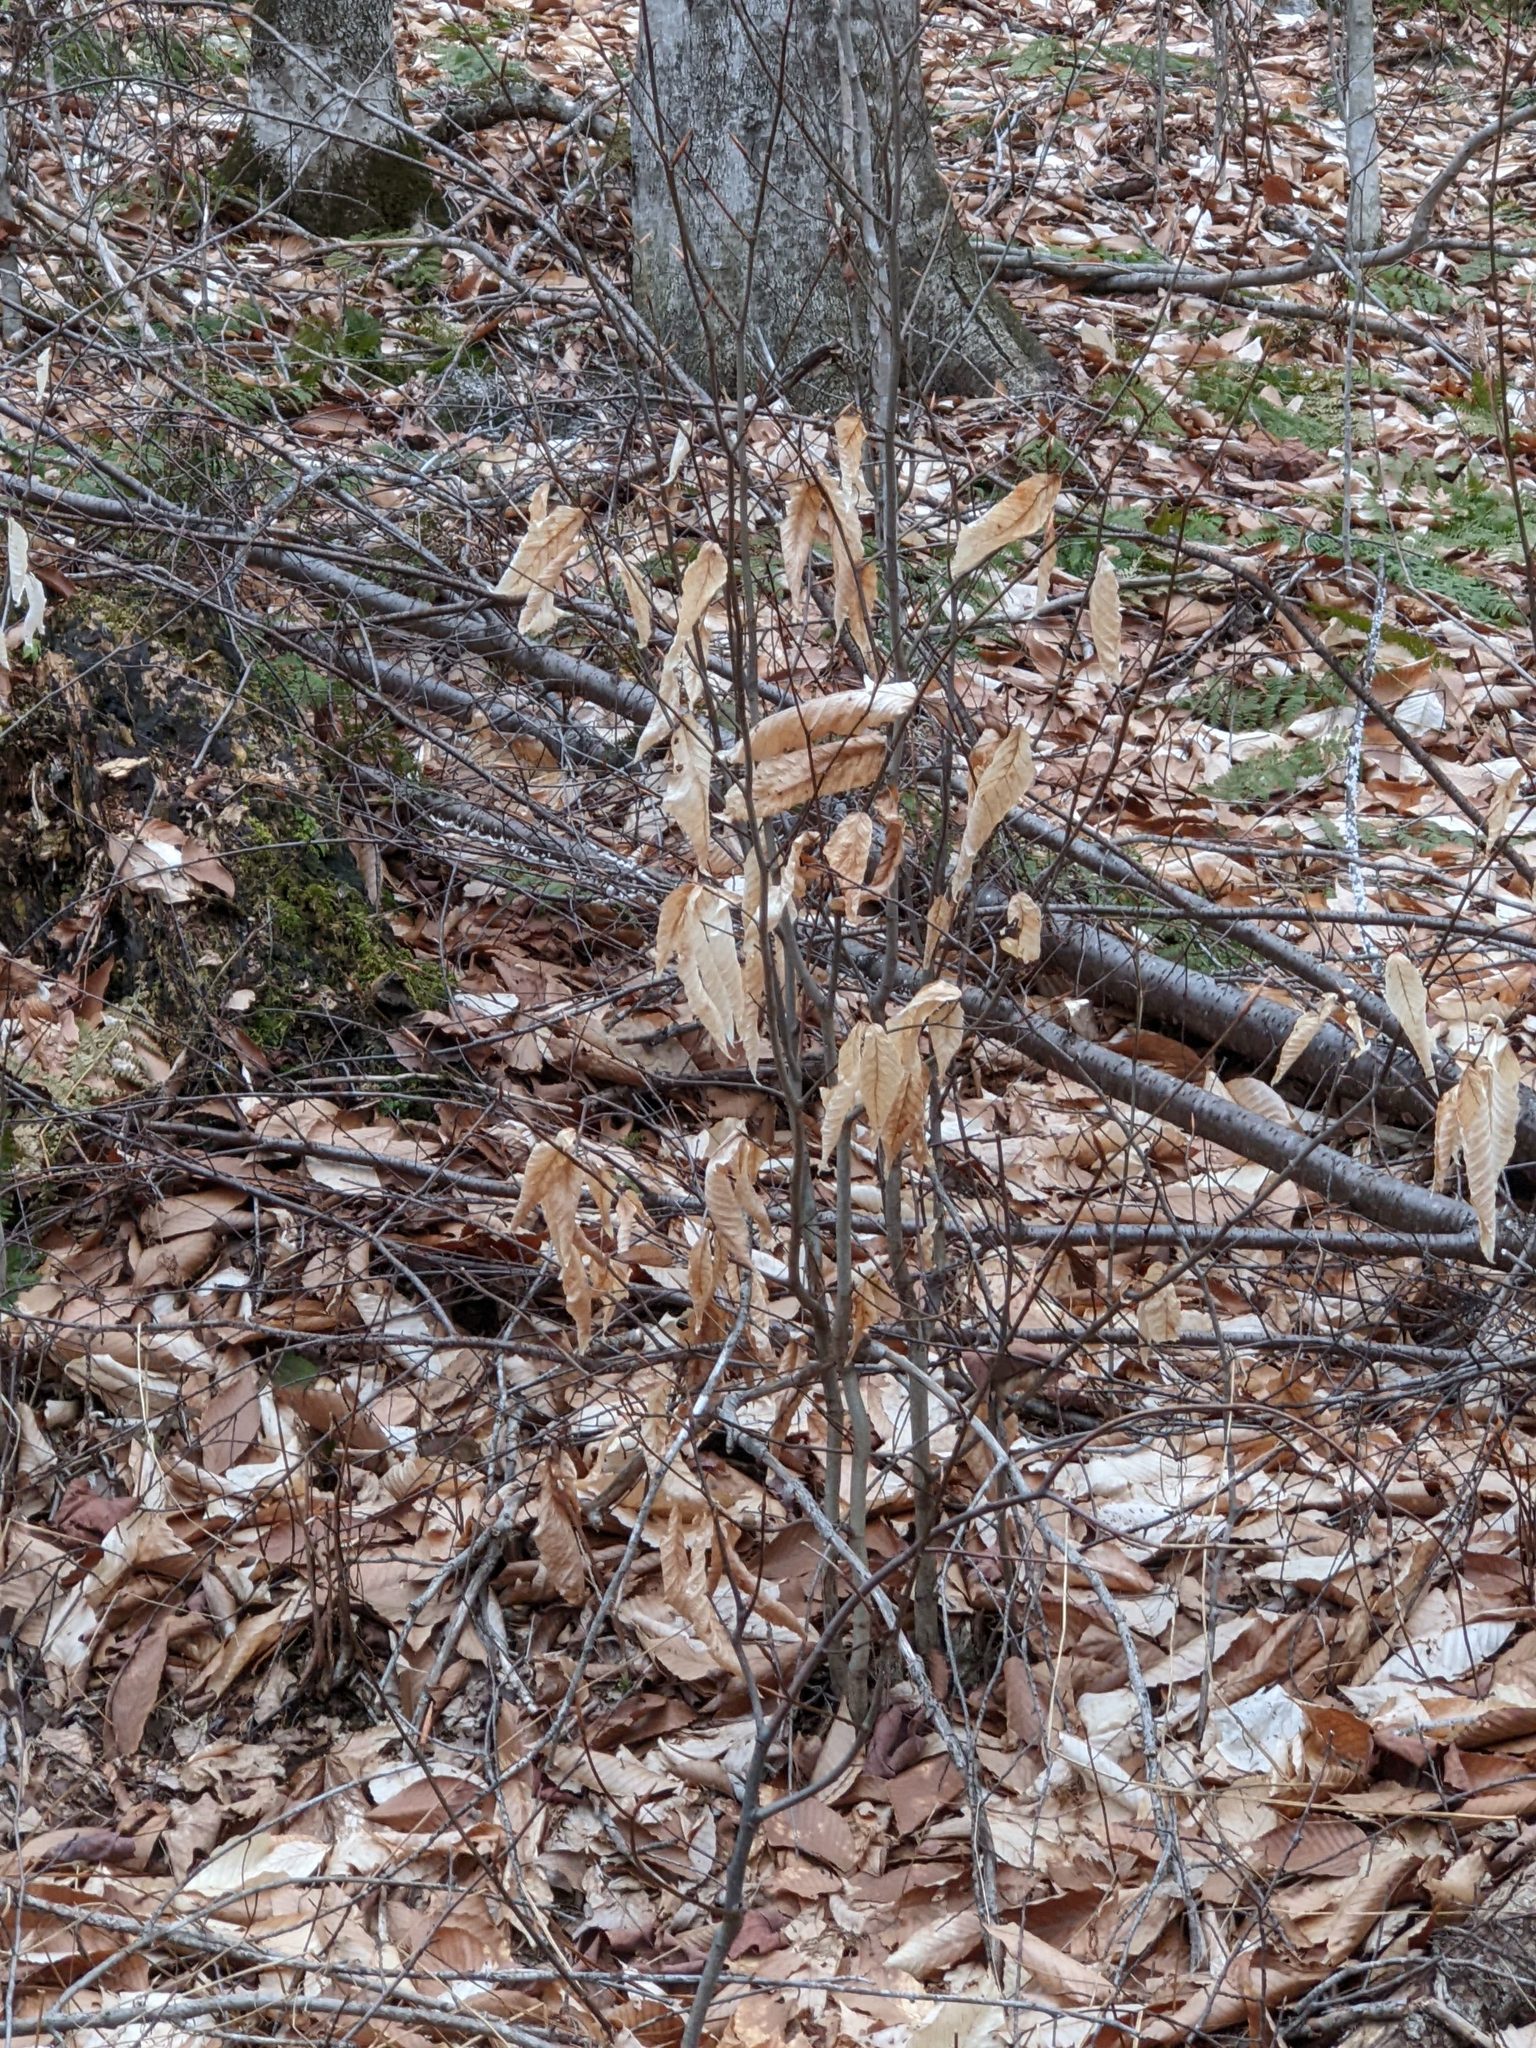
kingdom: Plantae
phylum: Tracheophyta
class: Magnoliopsida
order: Fagales
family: Fagaceae
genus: Fagus
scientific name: Fagus grandifolia
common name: American beech
